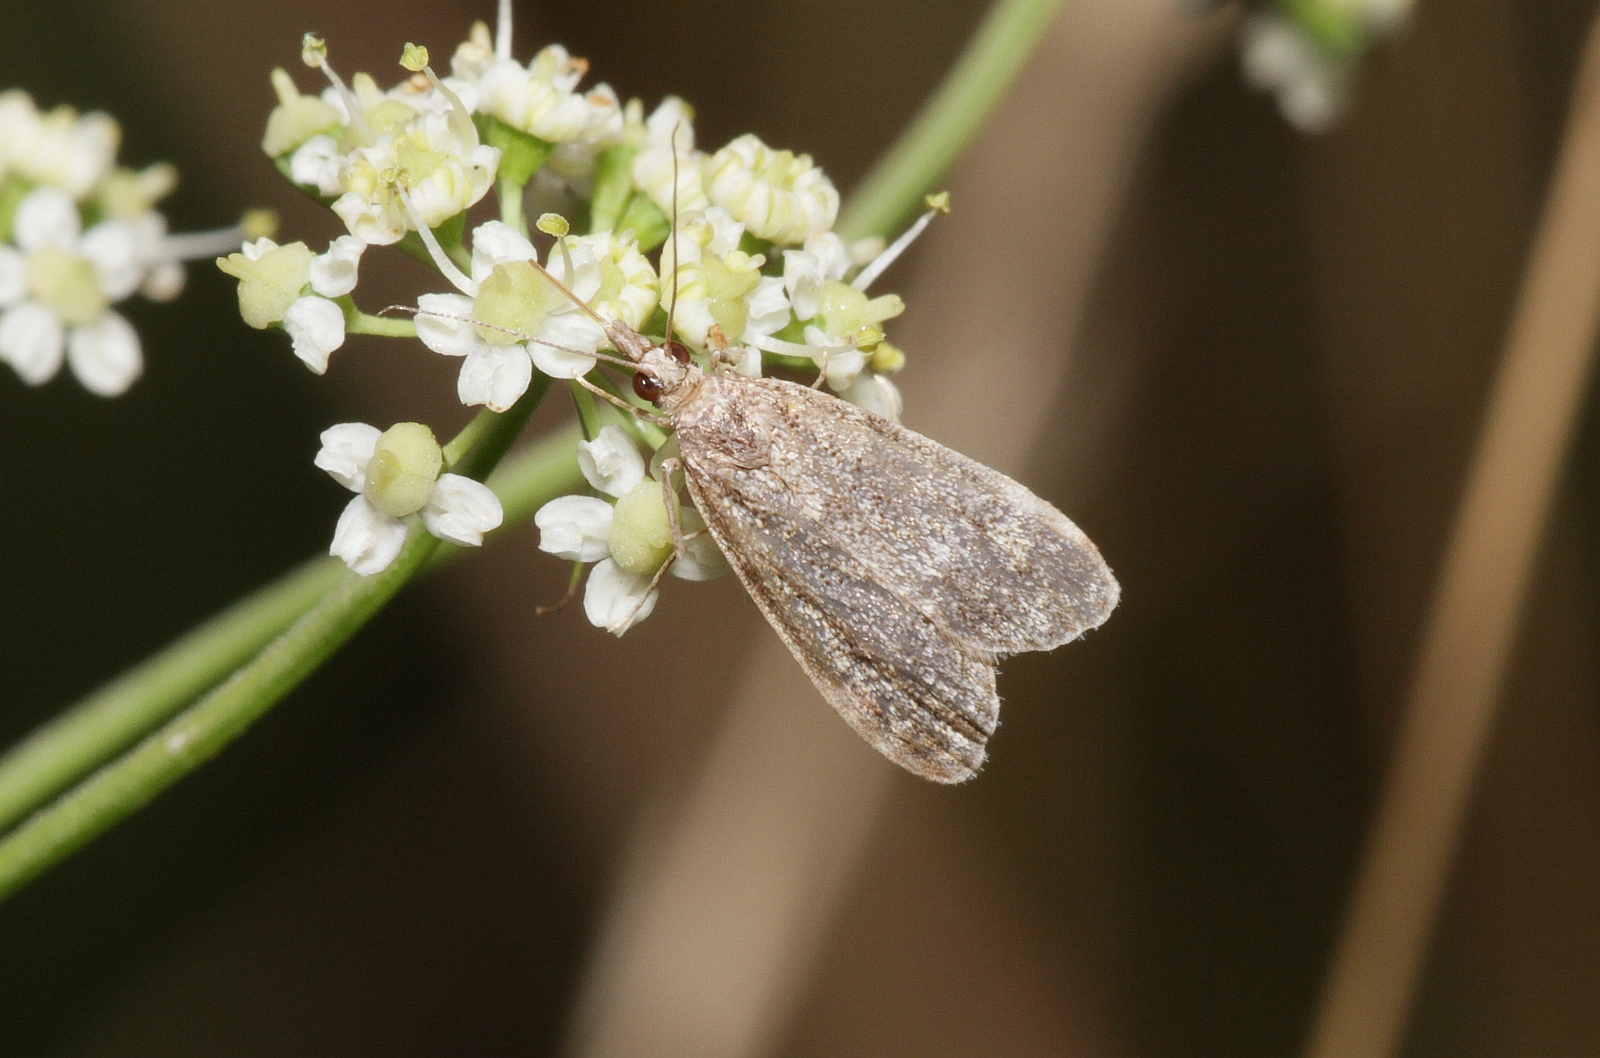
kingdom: Animalia
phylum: Arthropoda
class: Insecta
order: Lepidoptera
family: Crambidae
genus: Eudonia
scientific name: Eudonia mercurella
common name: Small grey
